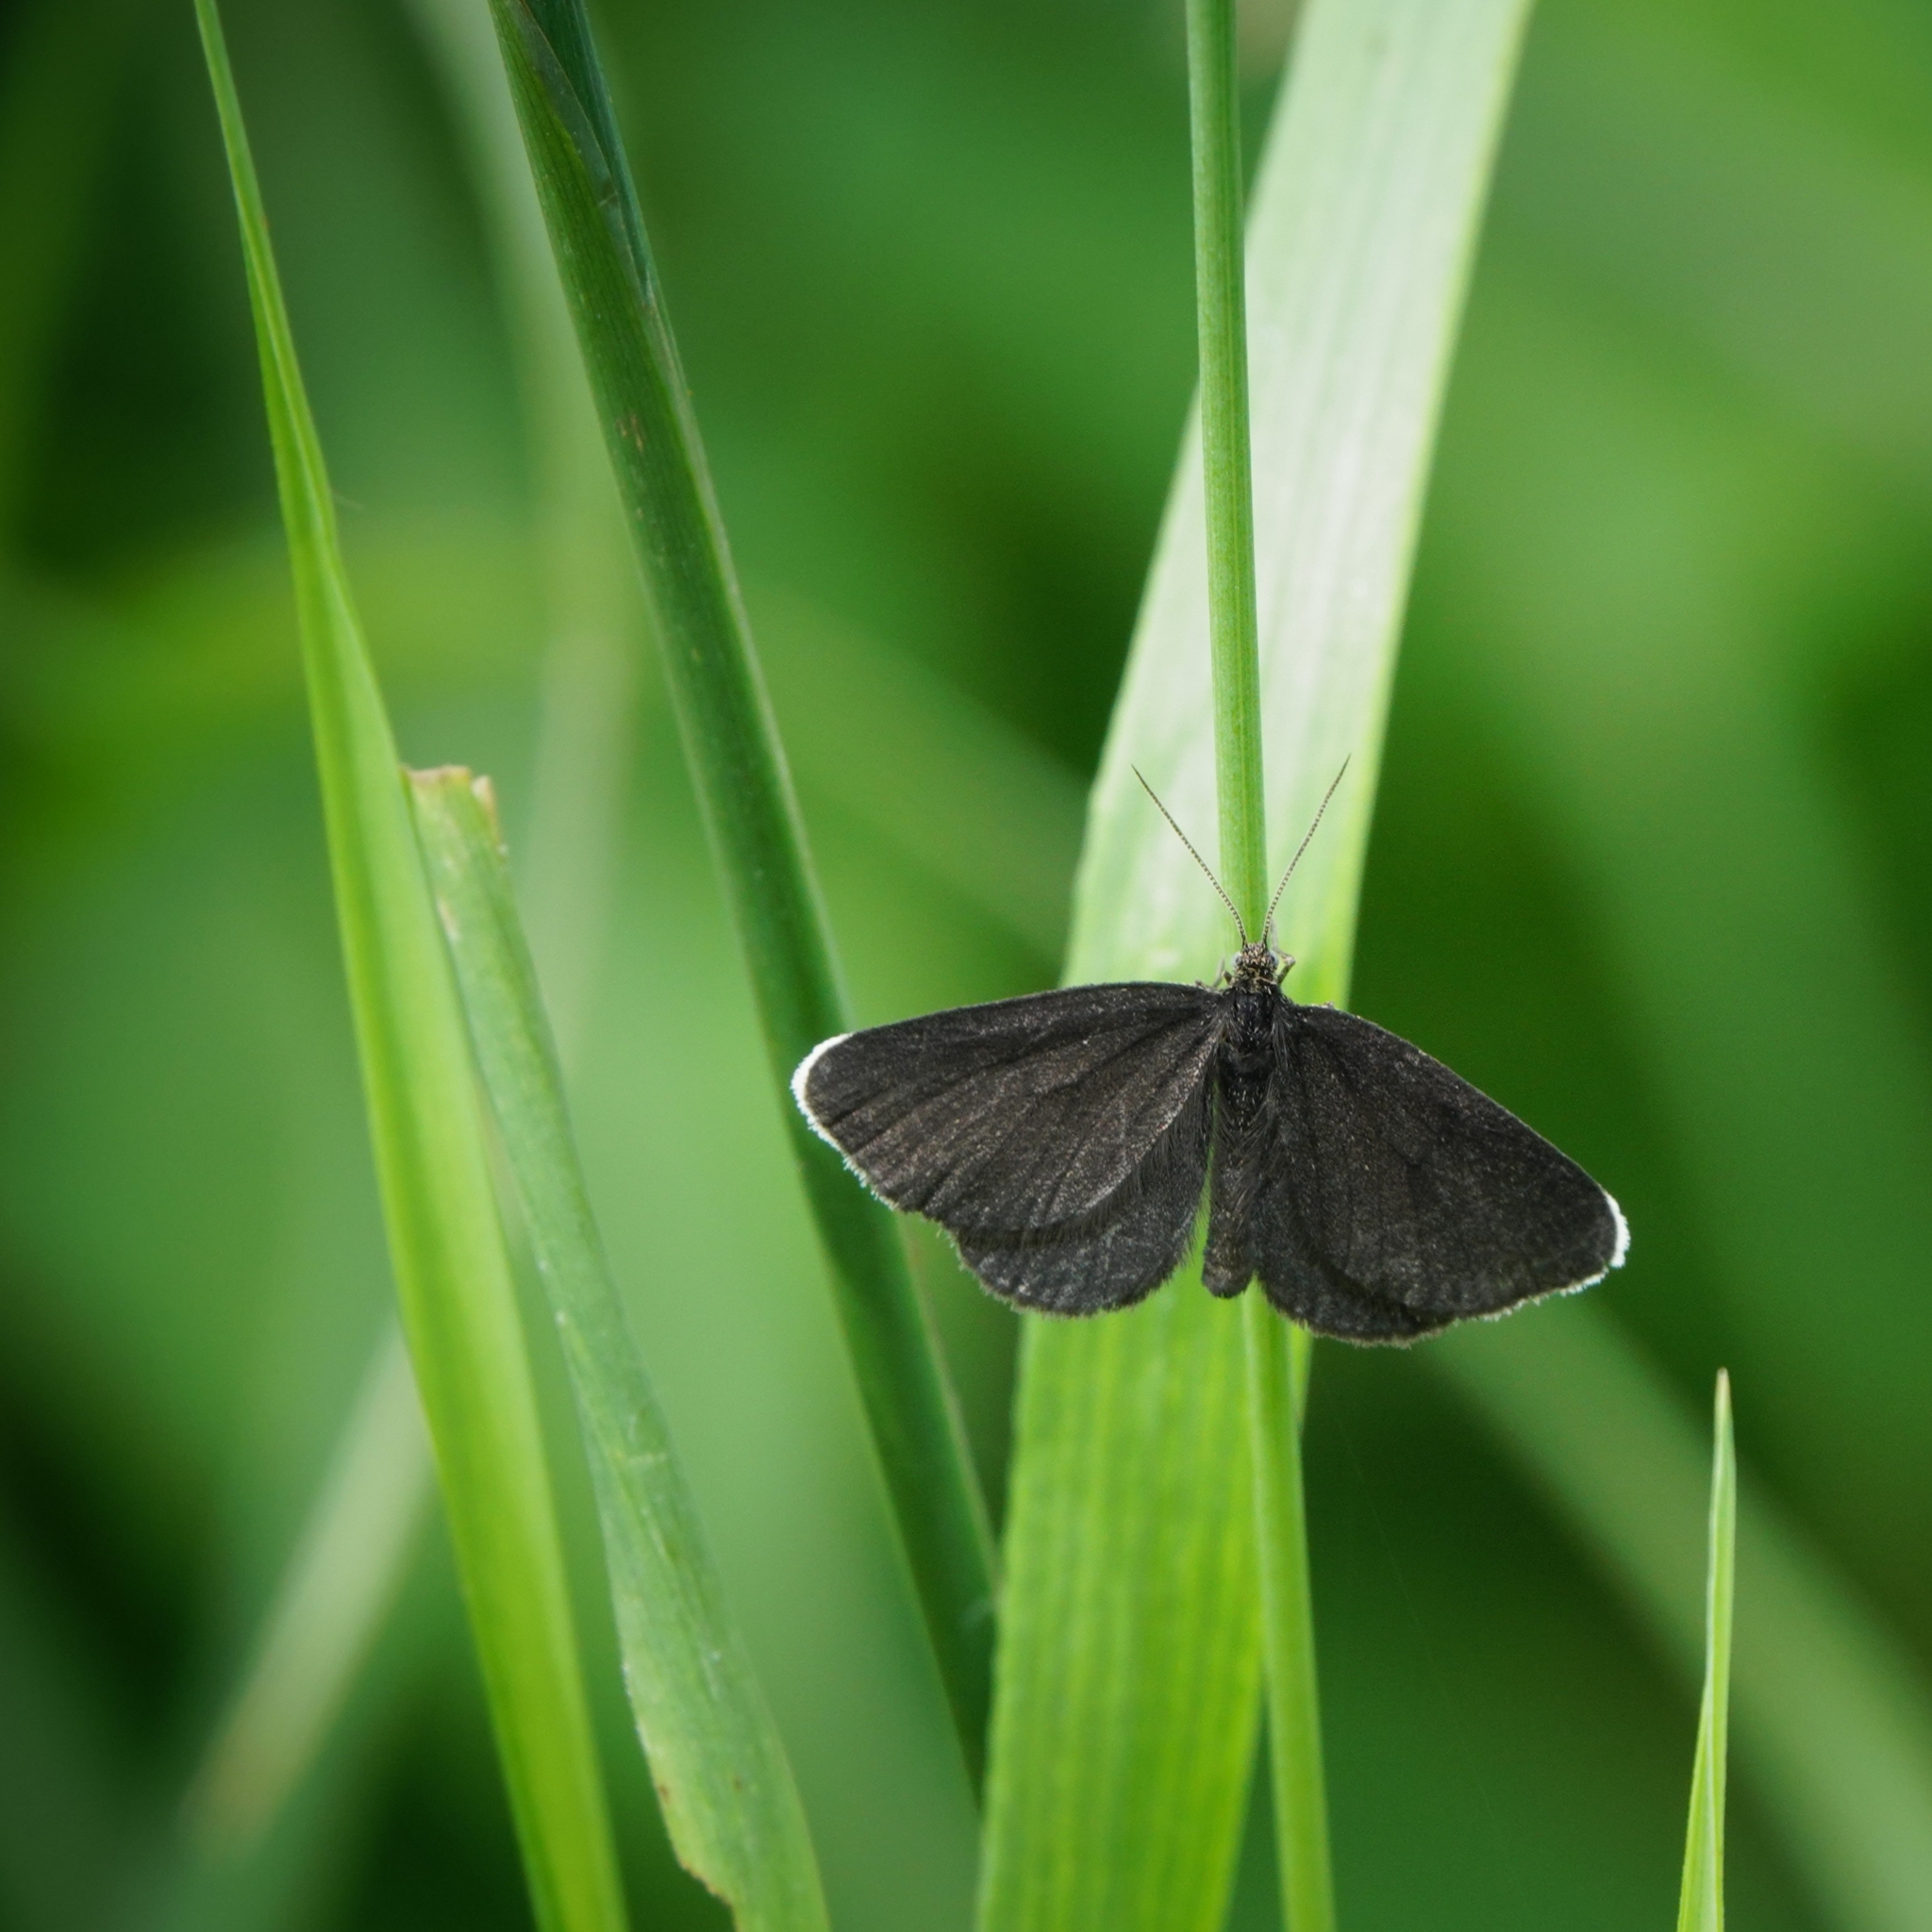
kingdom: Animalia
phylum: Arthropoda
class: Insecta
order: Lepidoptera
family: Geometridae
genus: Odezia
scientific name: Odezia atrata
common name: Chimney sweeper
